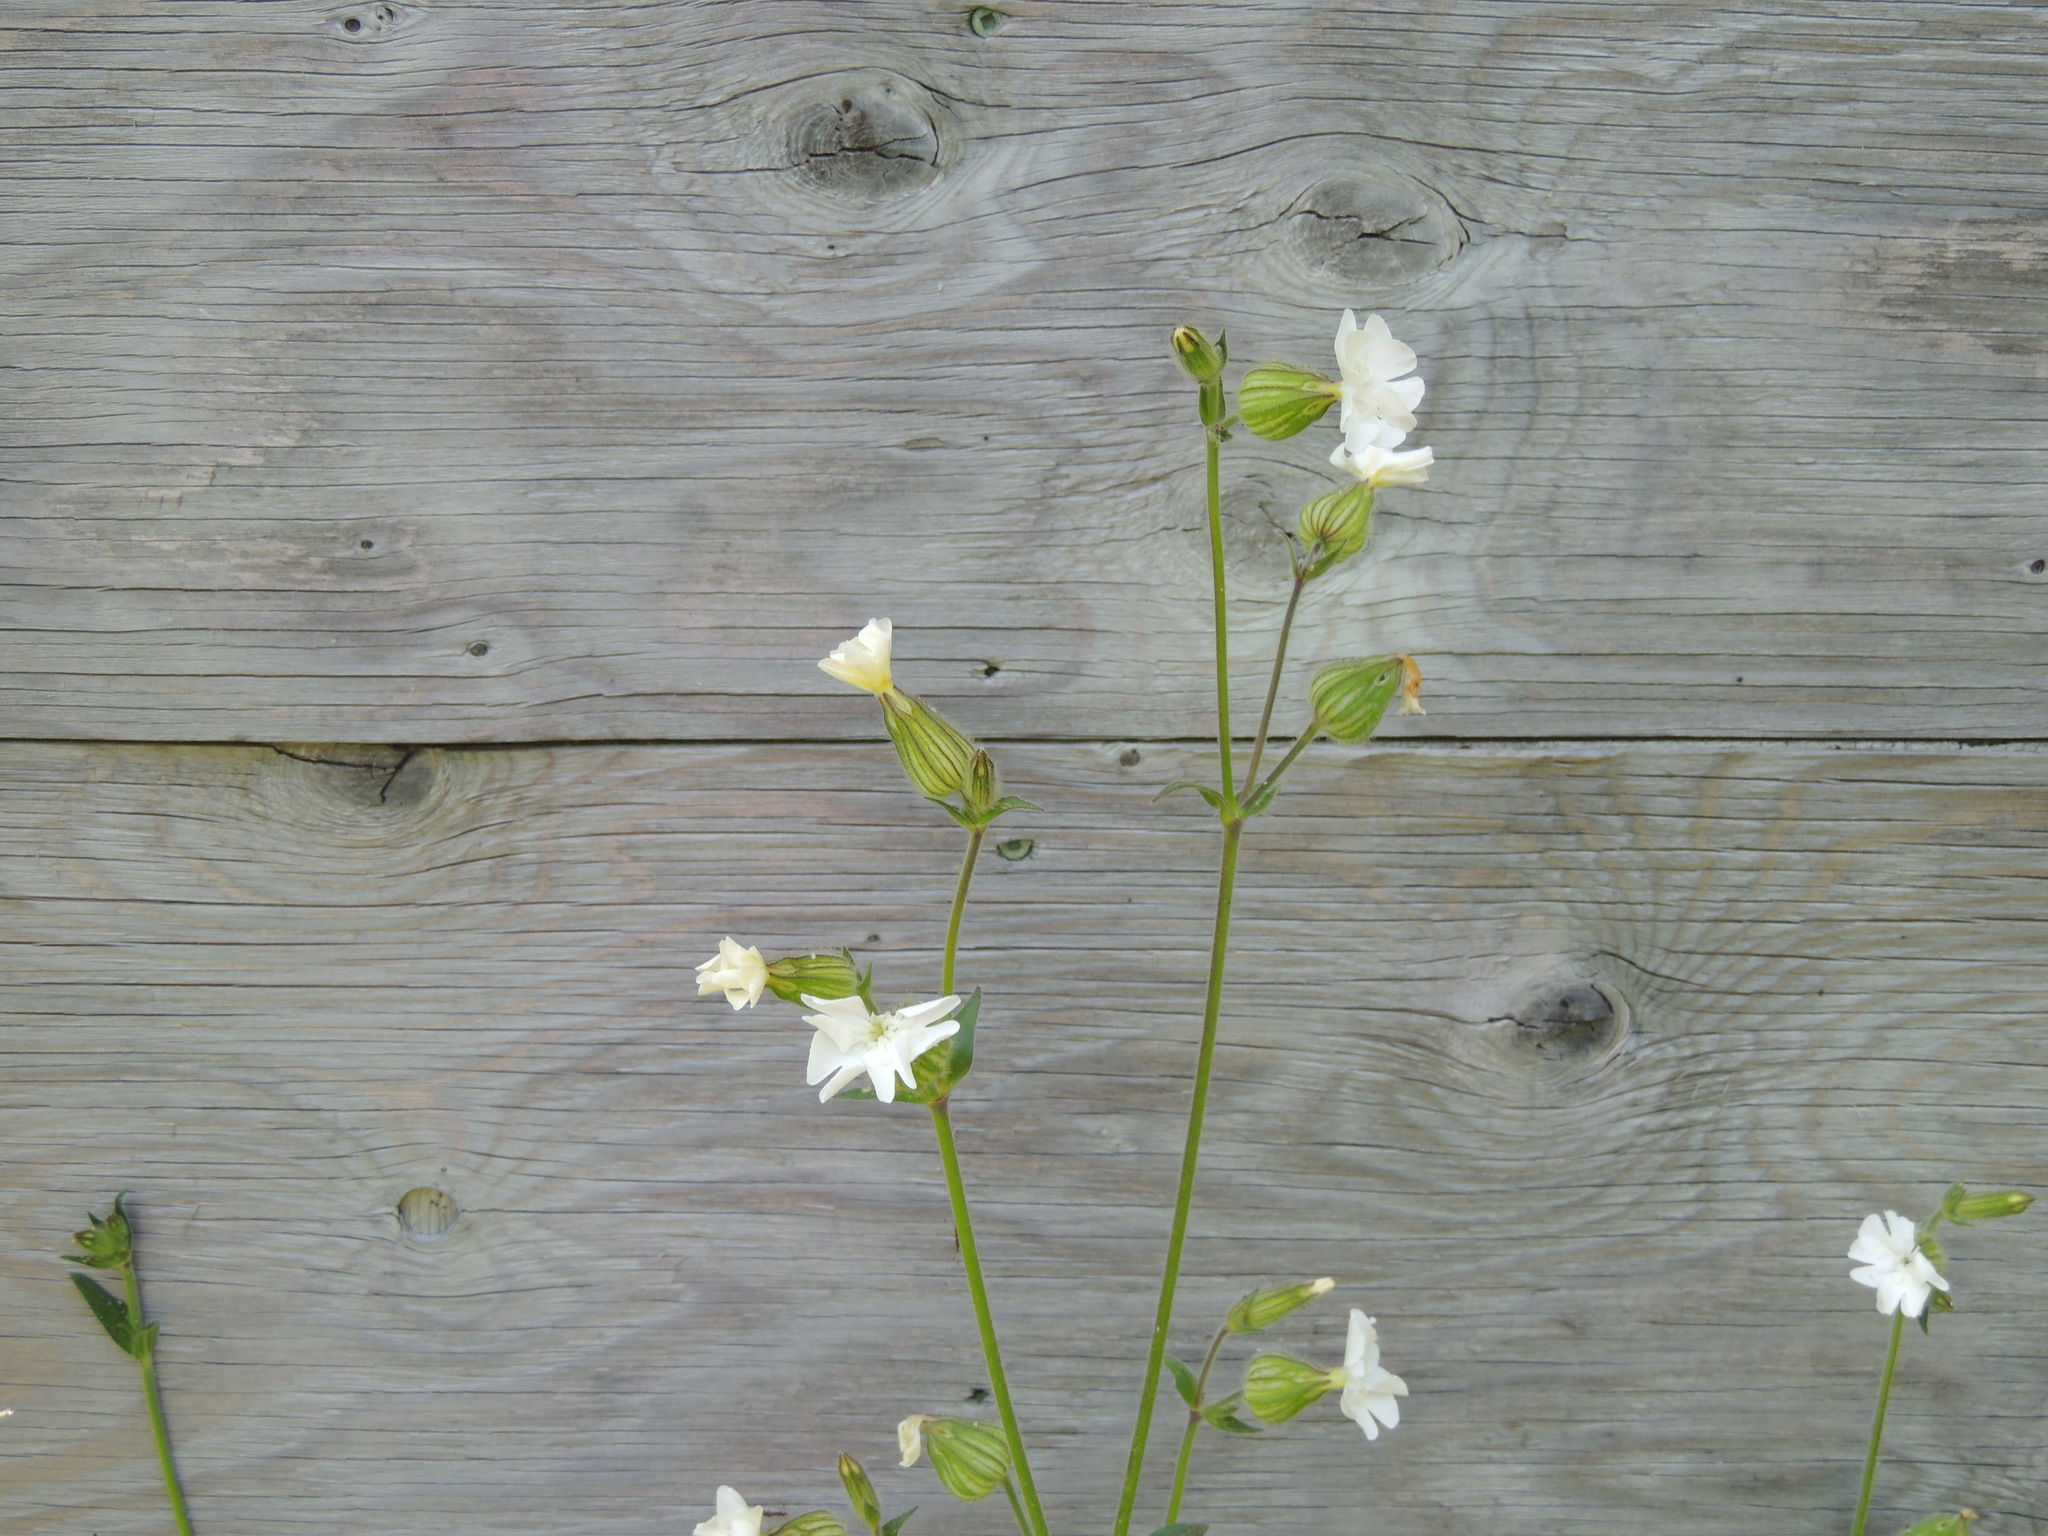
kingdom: Plantae
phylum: Tracheophyta
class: Magnoliopsida
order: Caryophyllales
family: Caryophyllaceae
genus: Silene
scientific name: Silene latifolia
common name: White campion
